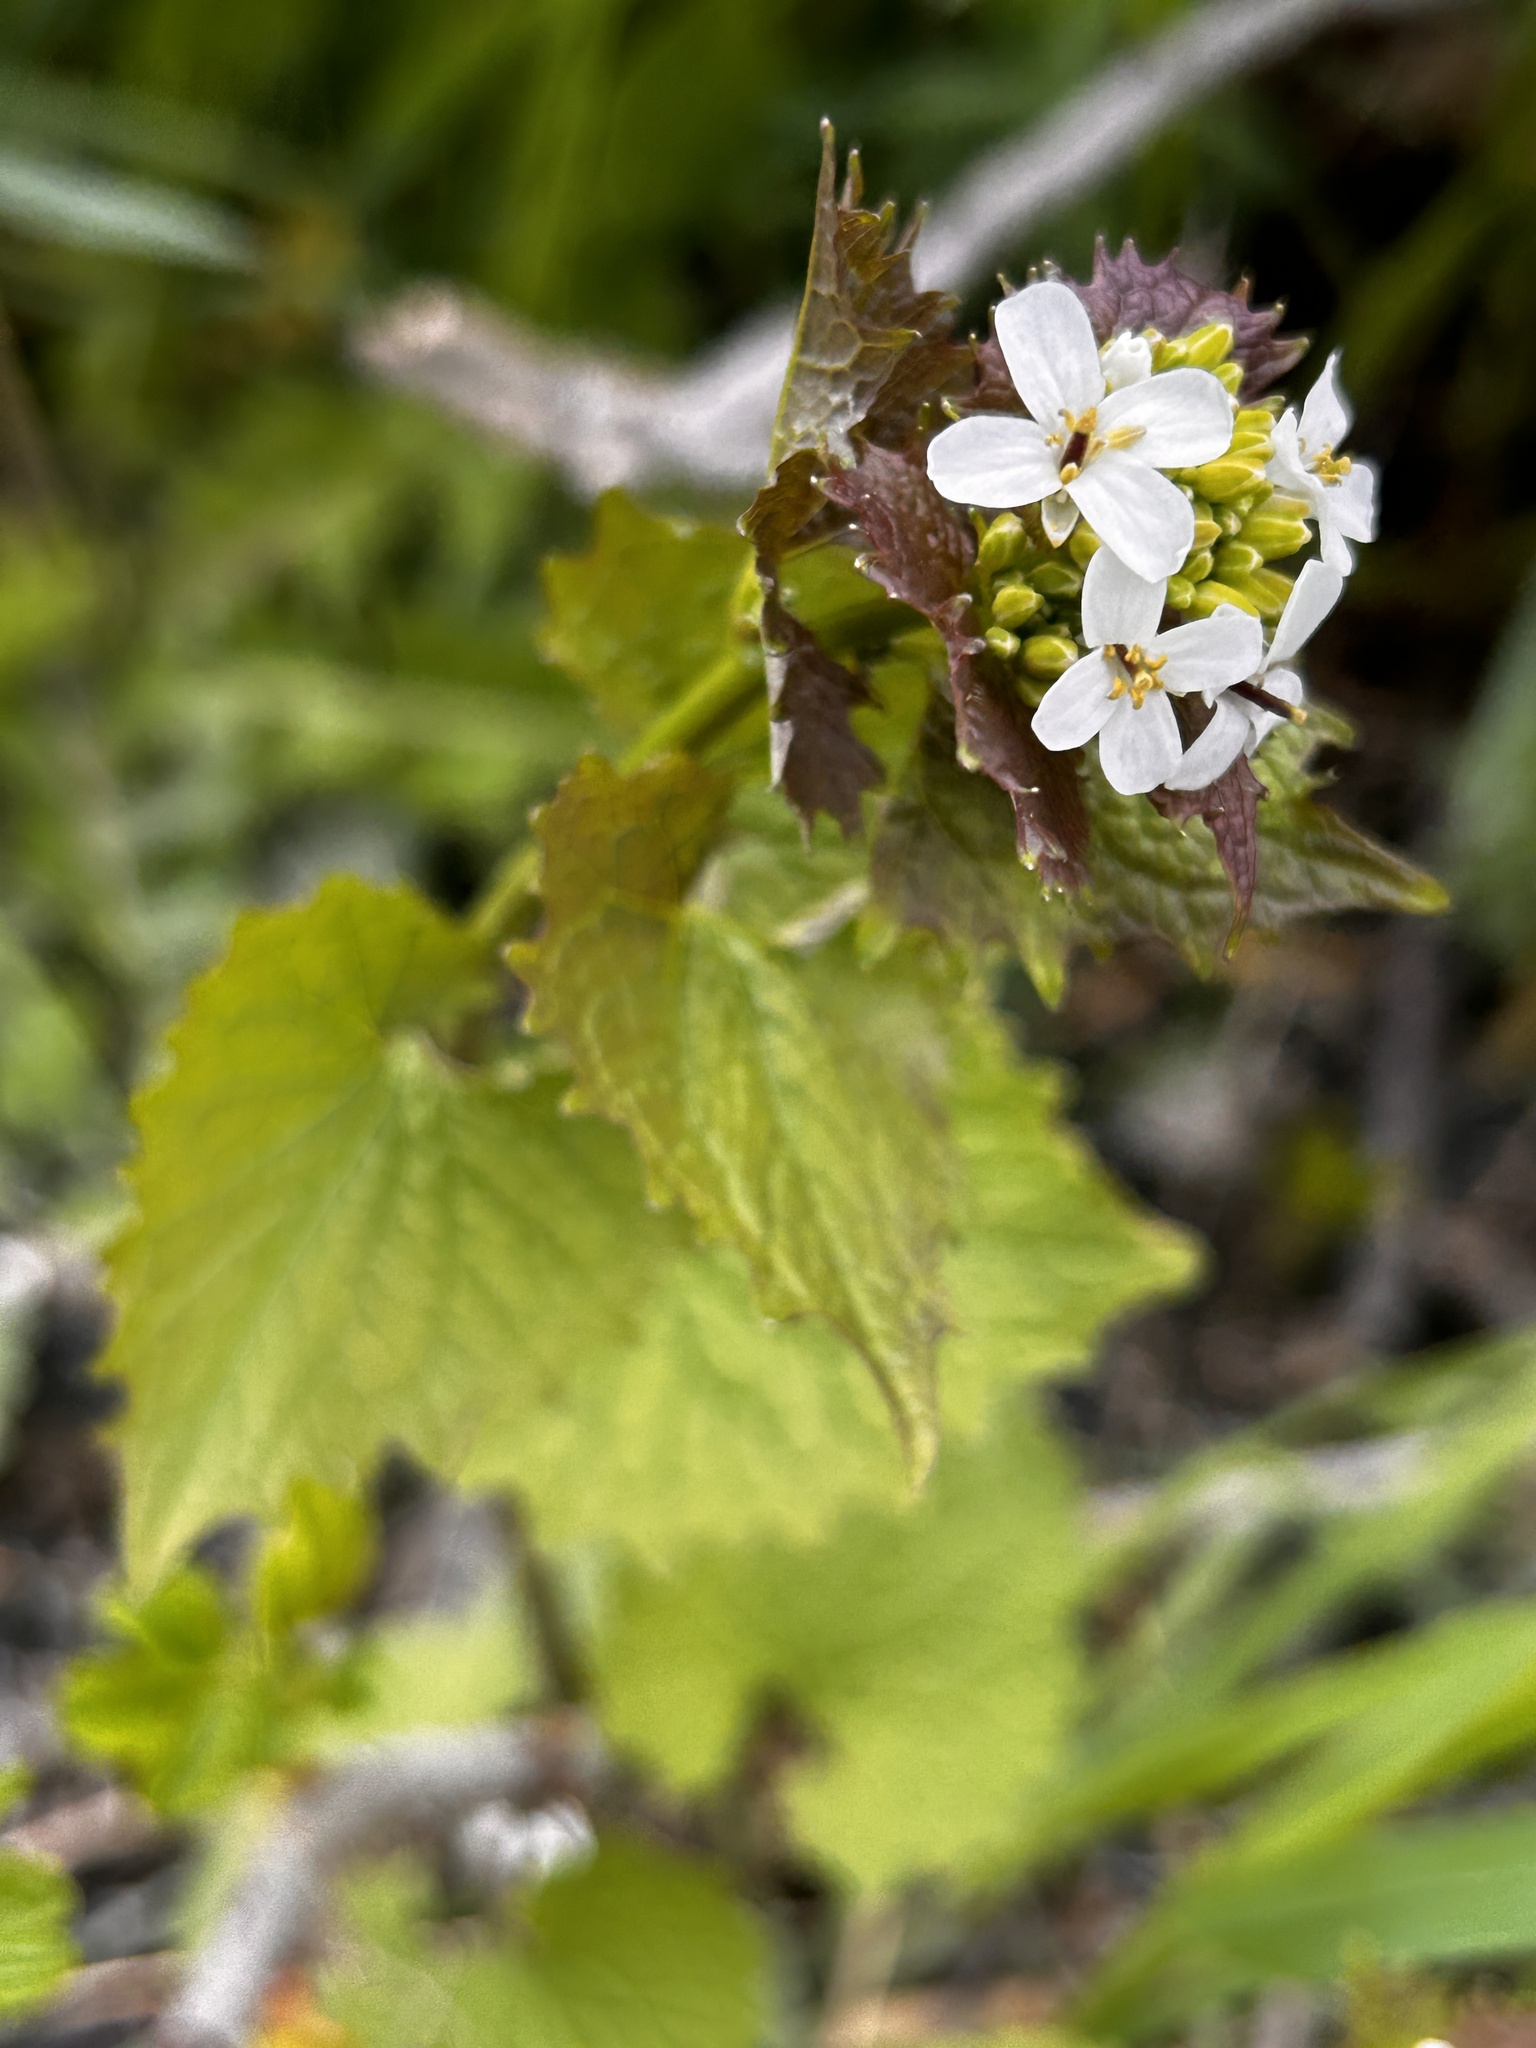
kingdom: Plantae
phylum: Tracheophyta
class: Magnoliopsida
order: Brassicales
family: Brassicaceae
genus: Alliaria
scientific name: Alliaria petiolata
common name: Garlic mustard
